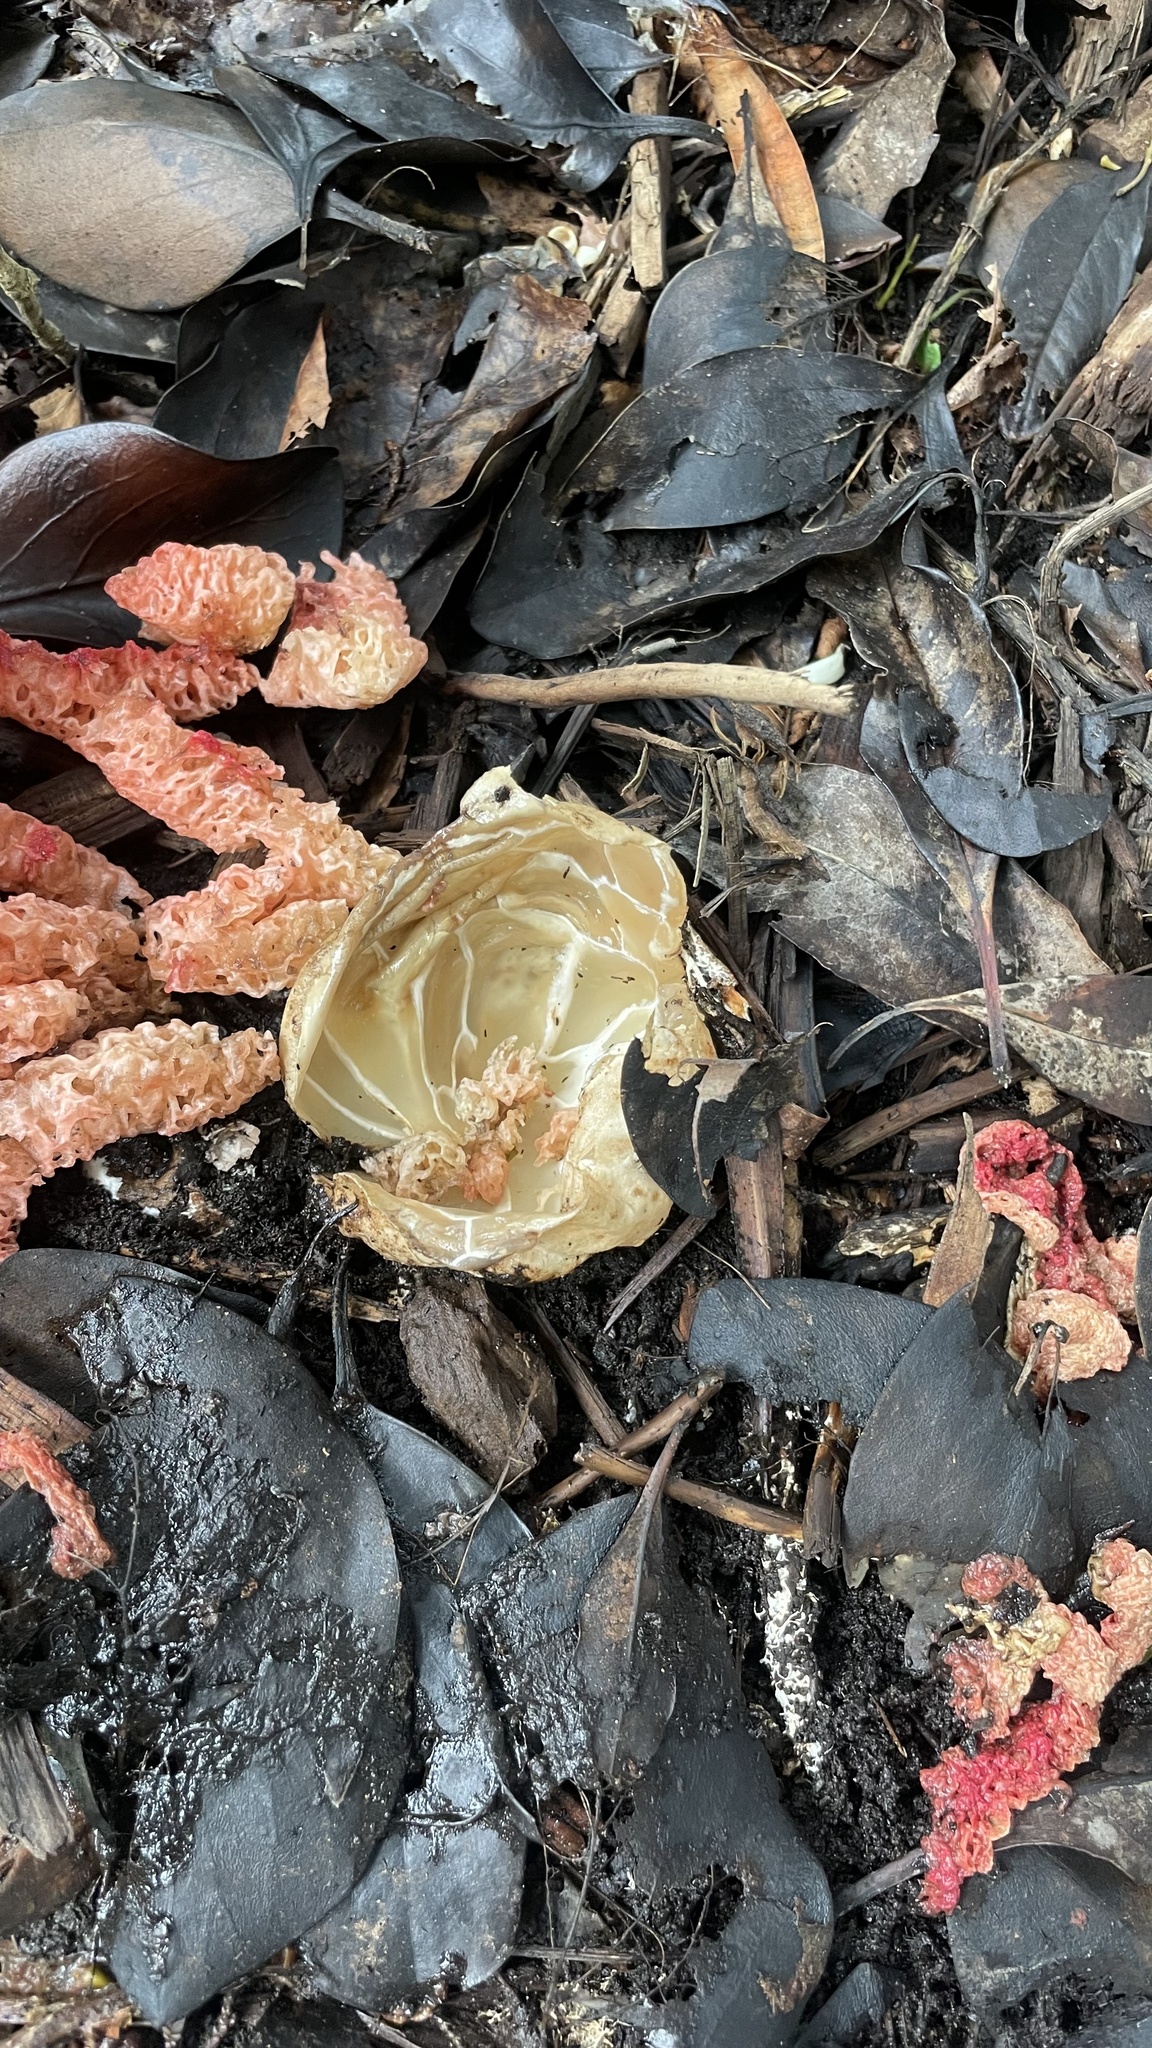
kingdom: Fungi
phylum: Basidiomycota
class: Agaricomycetes
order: Phallales
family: Phallaceae
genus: Clathrus
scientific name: Clathrus ruber
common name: Red cage
